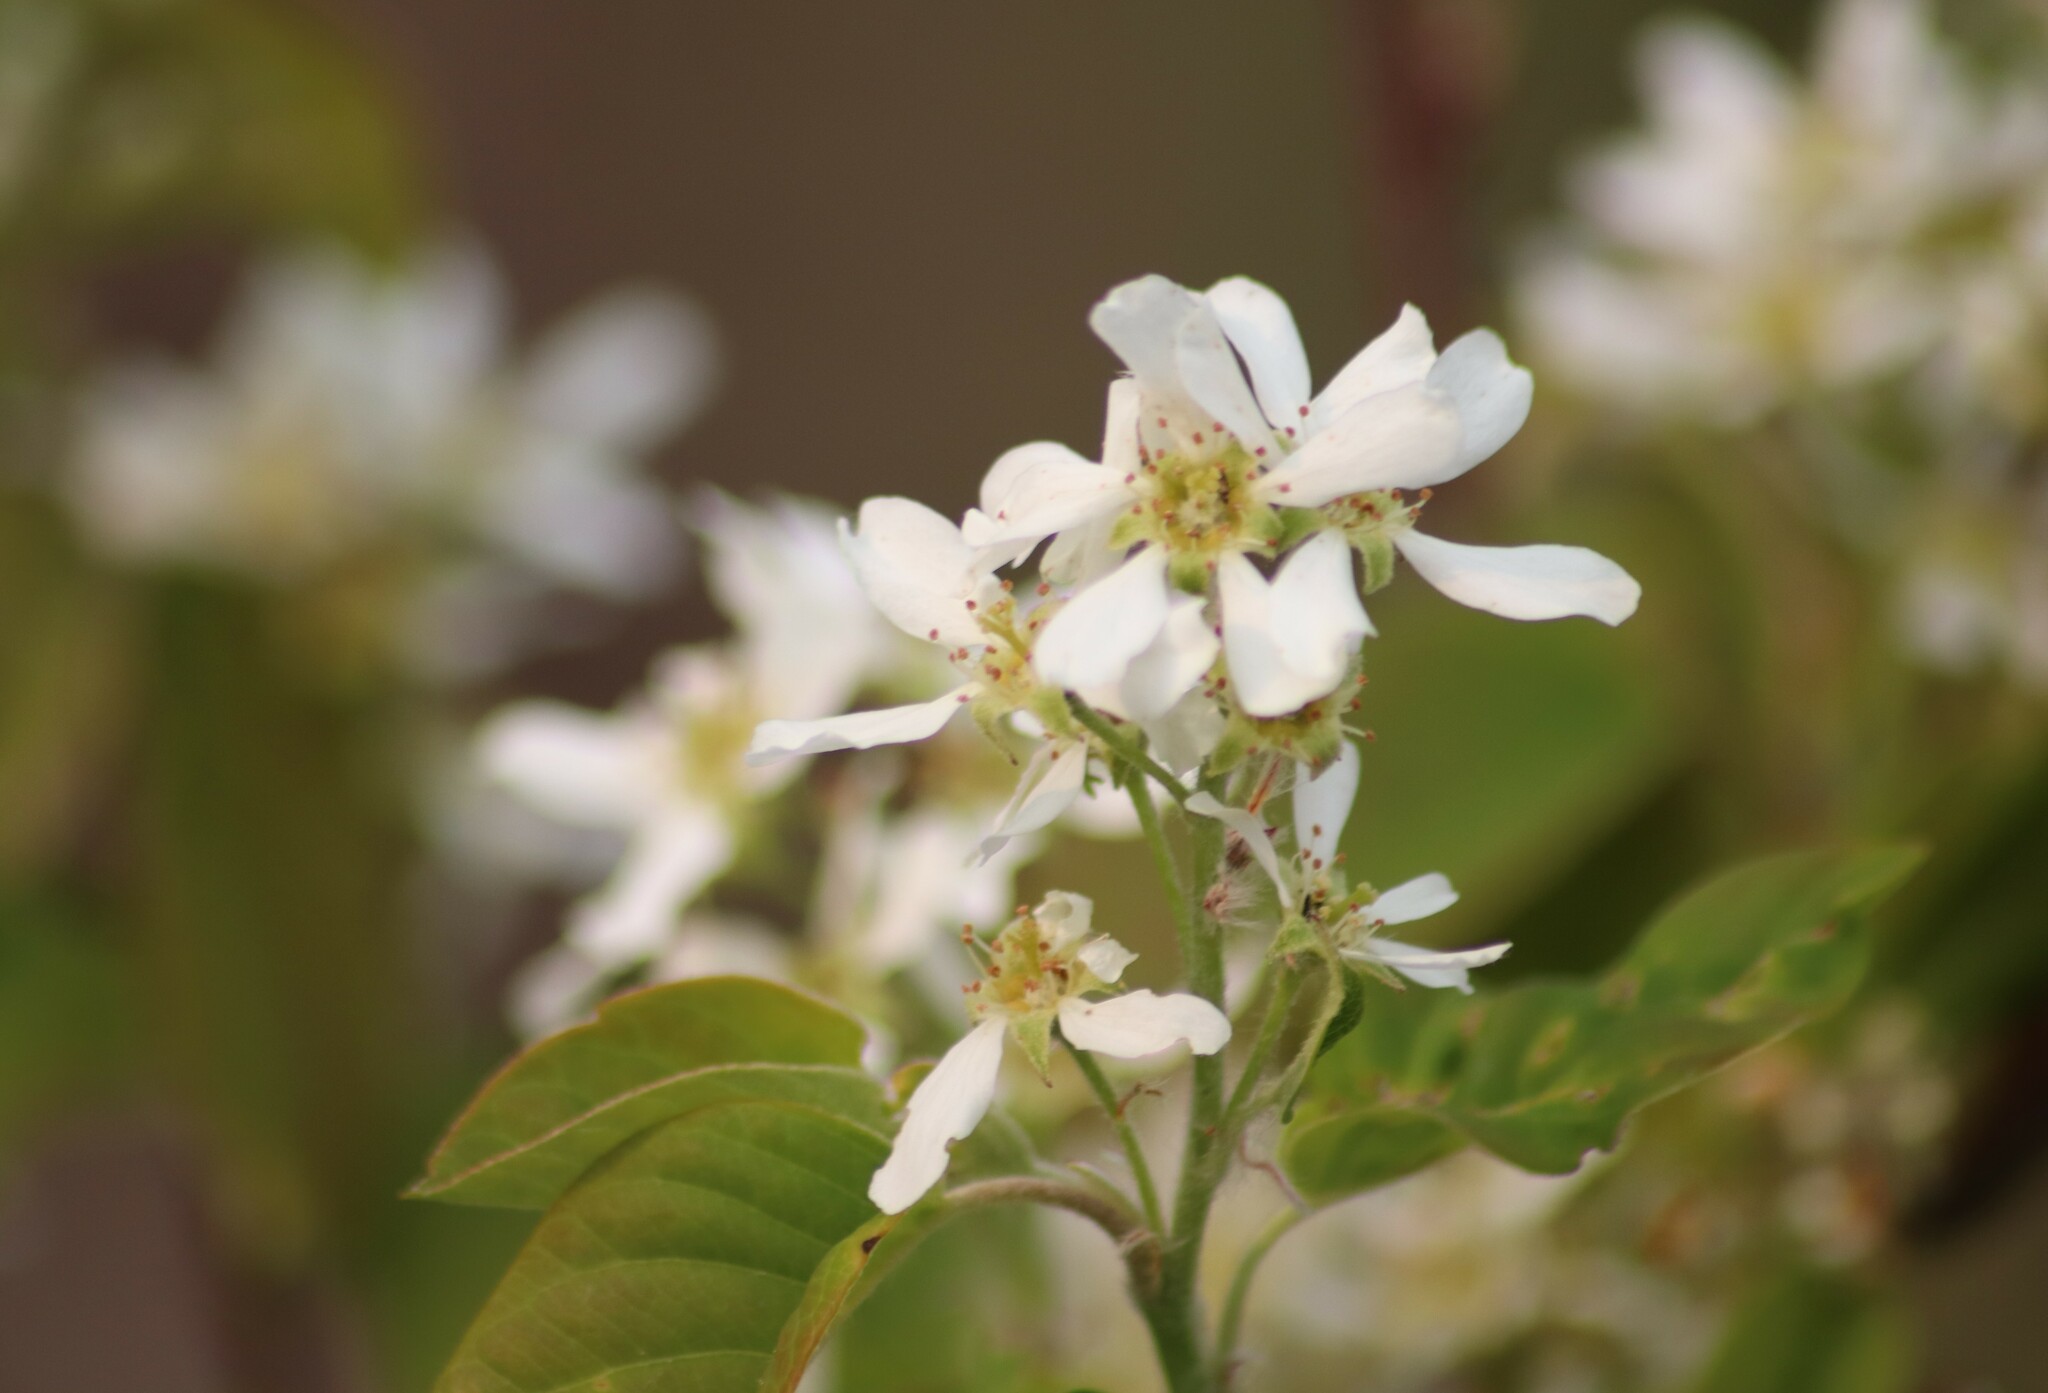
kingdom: Plantae
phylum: Tracheophyta
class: Magnoliopsida
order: Rosales
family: Rosaceae
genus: Amelanchier
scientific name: Amelanchier alnifolia
